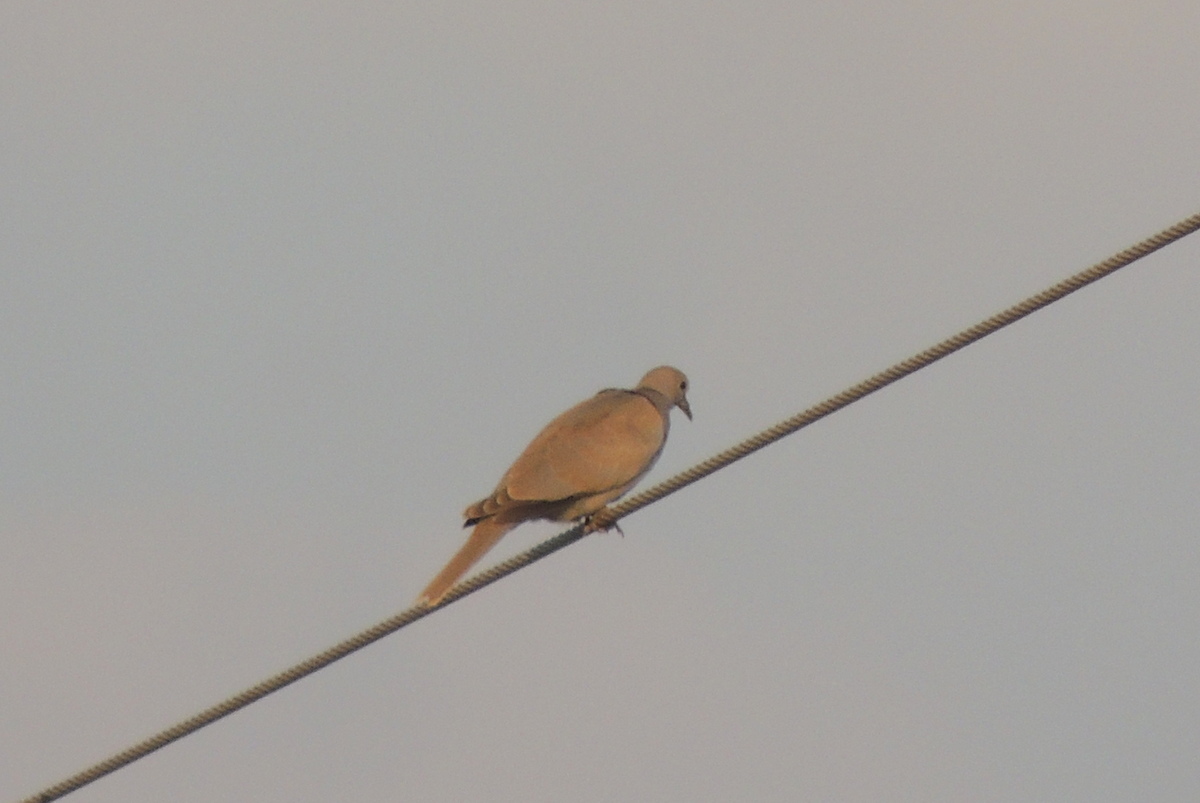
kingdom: Animalia
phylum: Chordata
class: Aves
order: Columbiformes
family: Columbidae
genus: Streptopelia
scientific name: Streptopelia decaocto
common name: Eurasian collared dove
